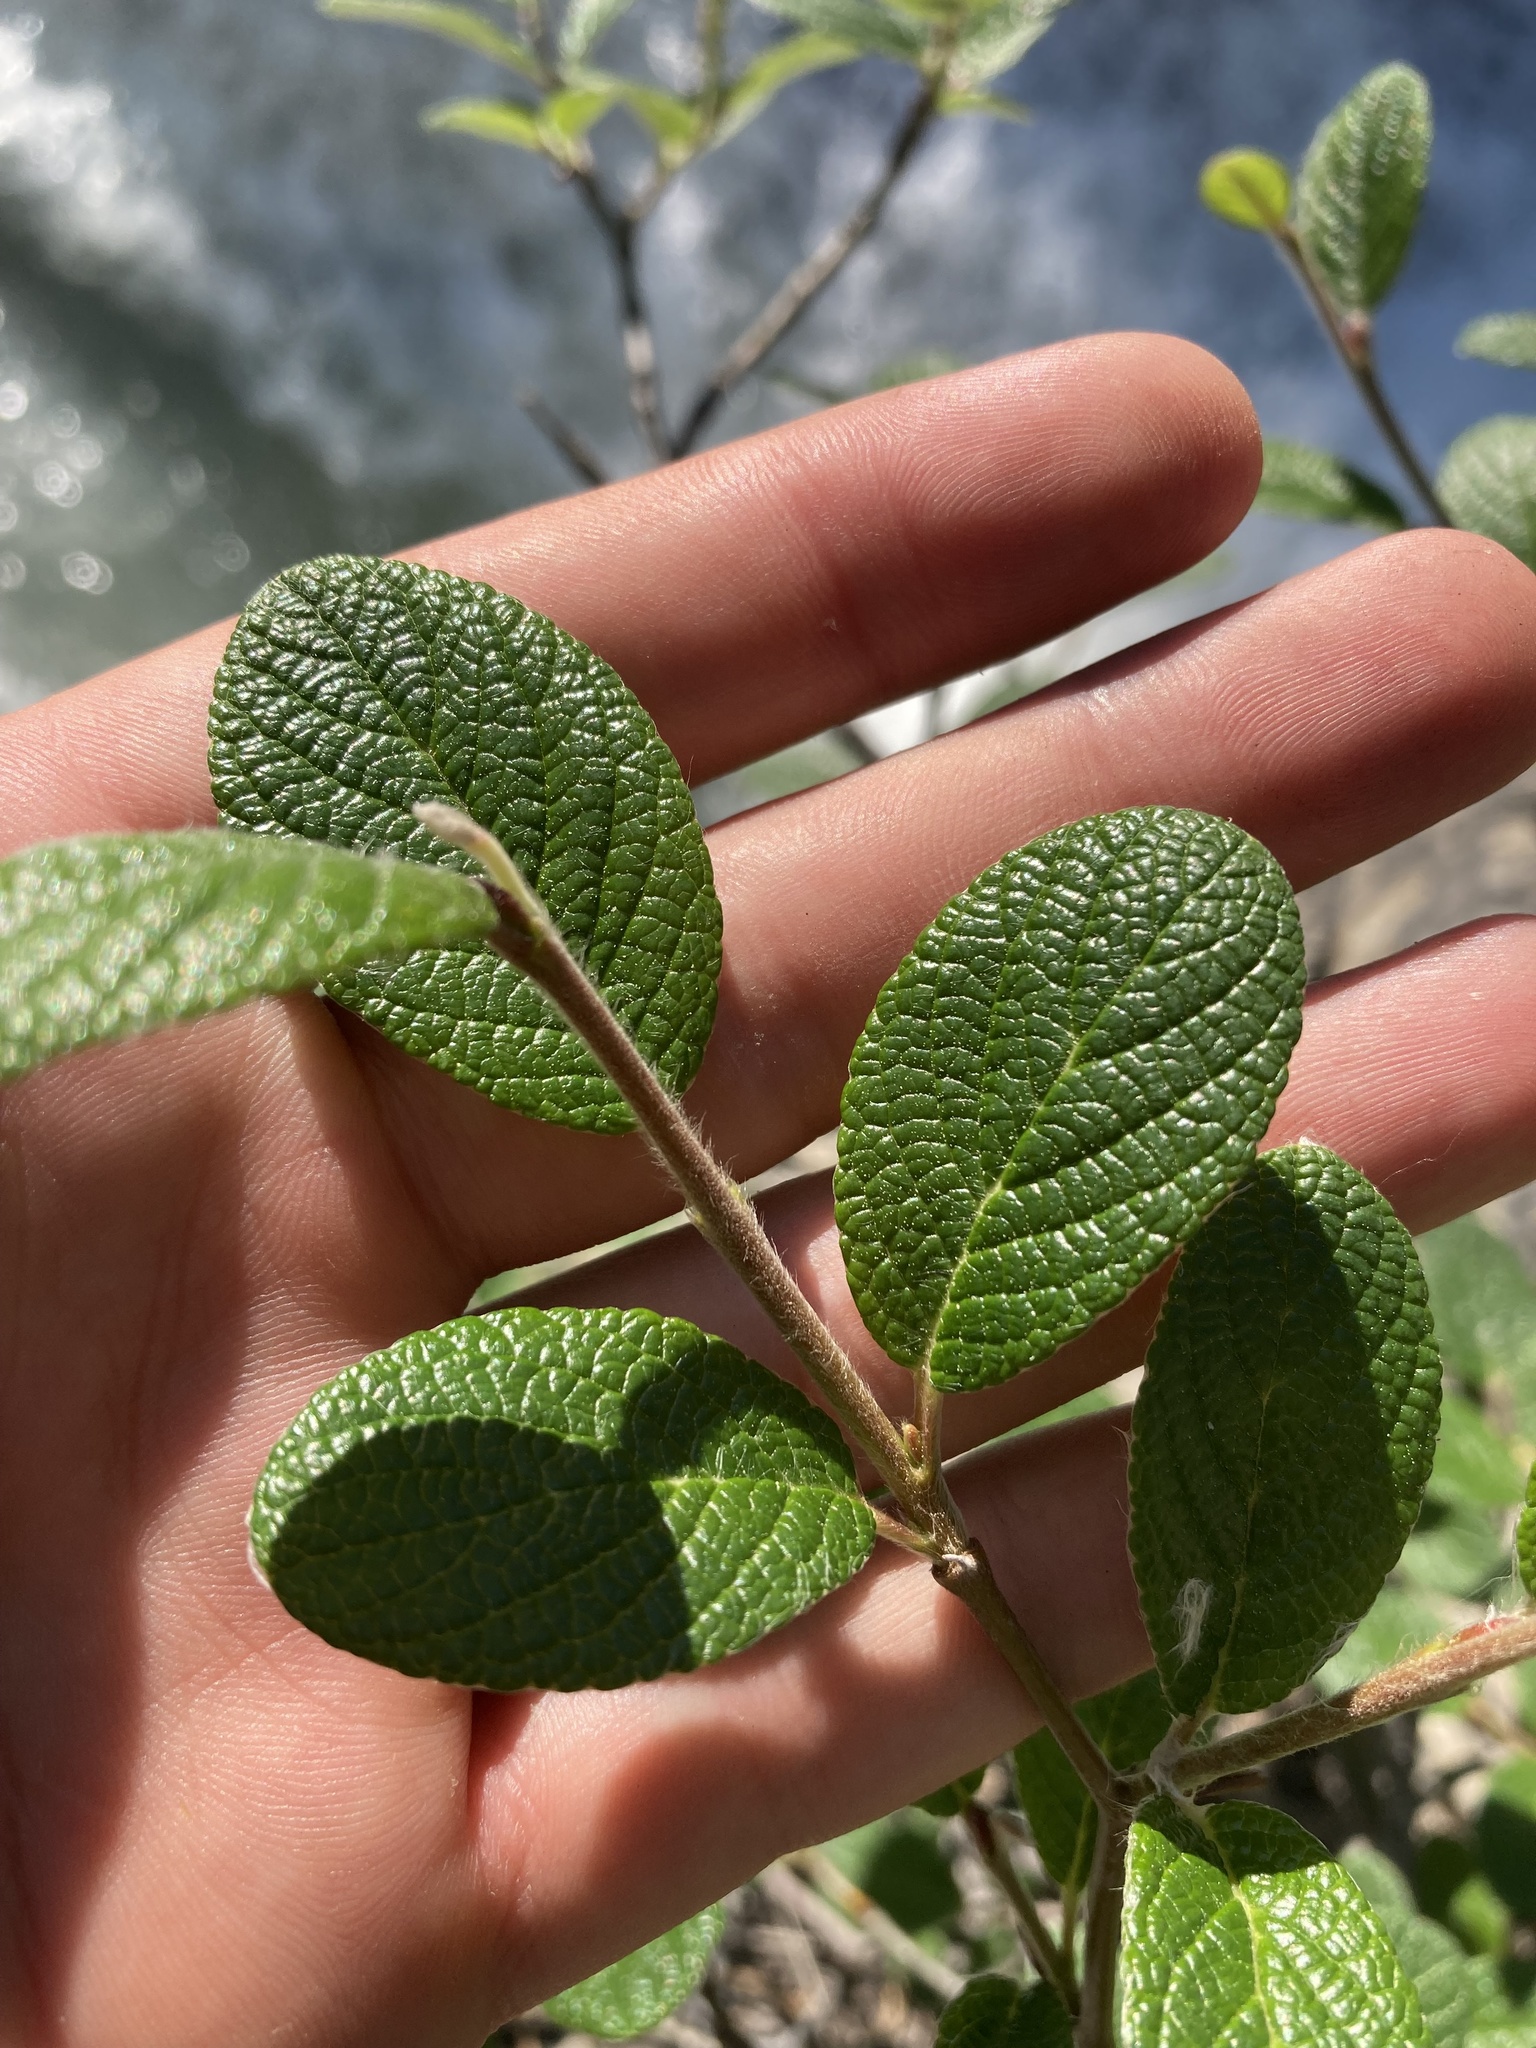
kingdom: Plantae
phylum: Tracheophyta
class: Magnoliopsida
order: Malpighiales
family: Salicaceae
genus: Salix
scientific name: Salix vestita
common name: Hairy willow
